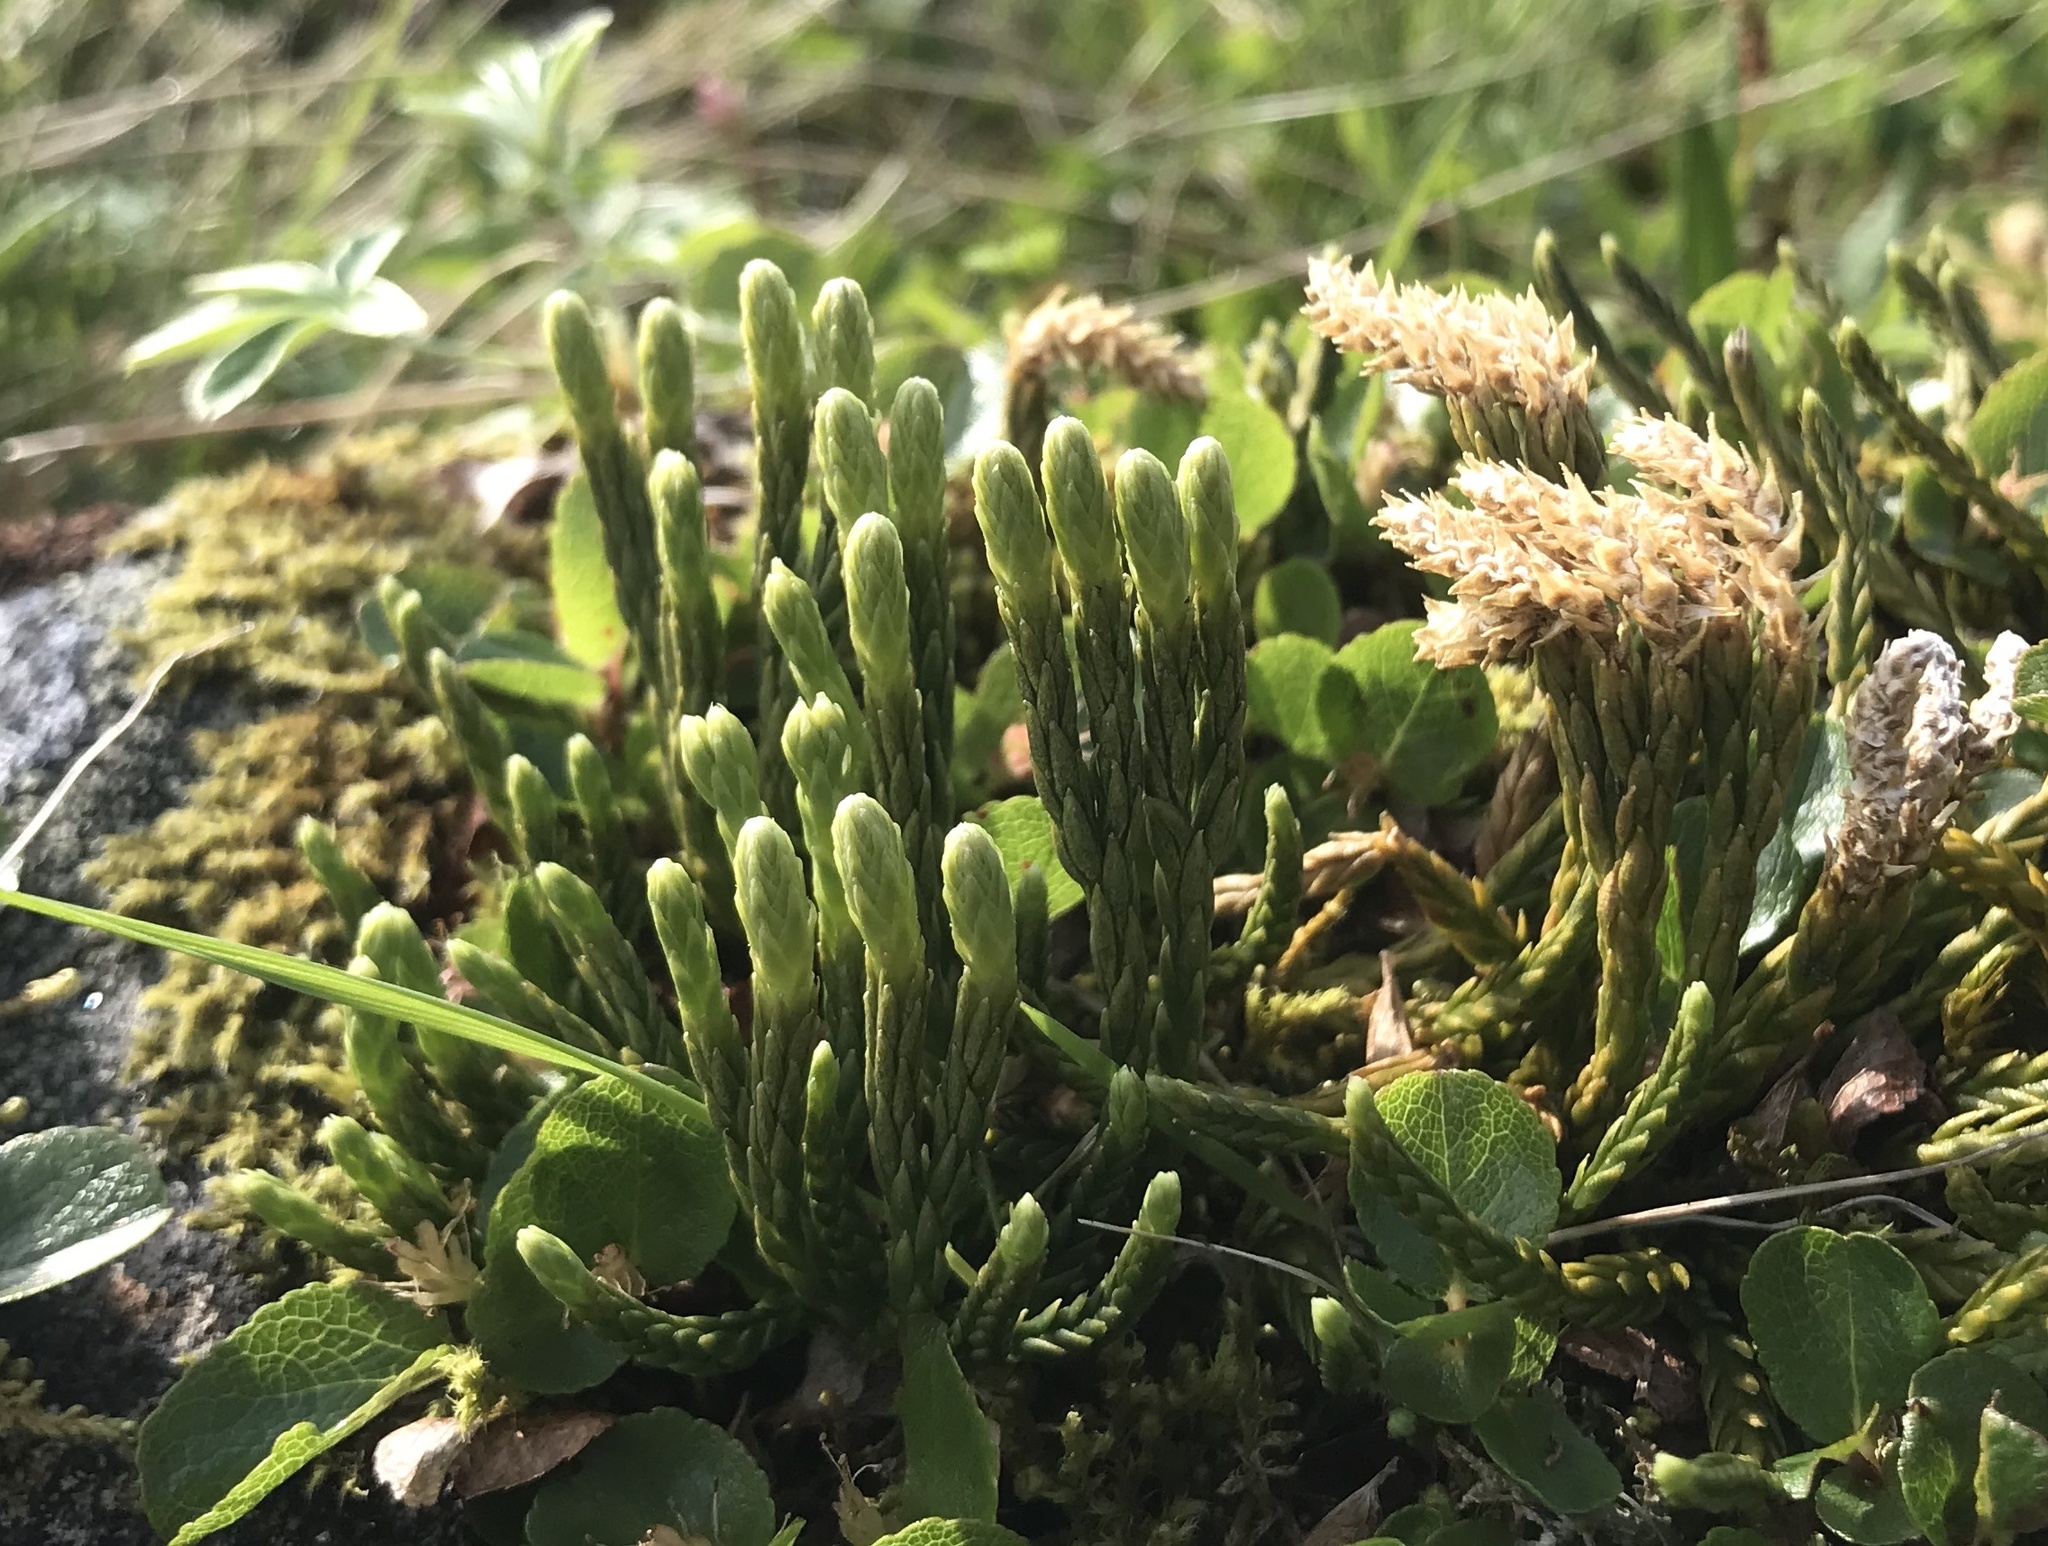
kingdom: Plantae
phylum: Tracheophyta
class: Lycopodiopsida
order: Lycopodiales
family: Lycopodiaceae
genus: Diphasiastrum
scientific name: Diphasiastrum alpinum
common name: Alpine clubmoss
